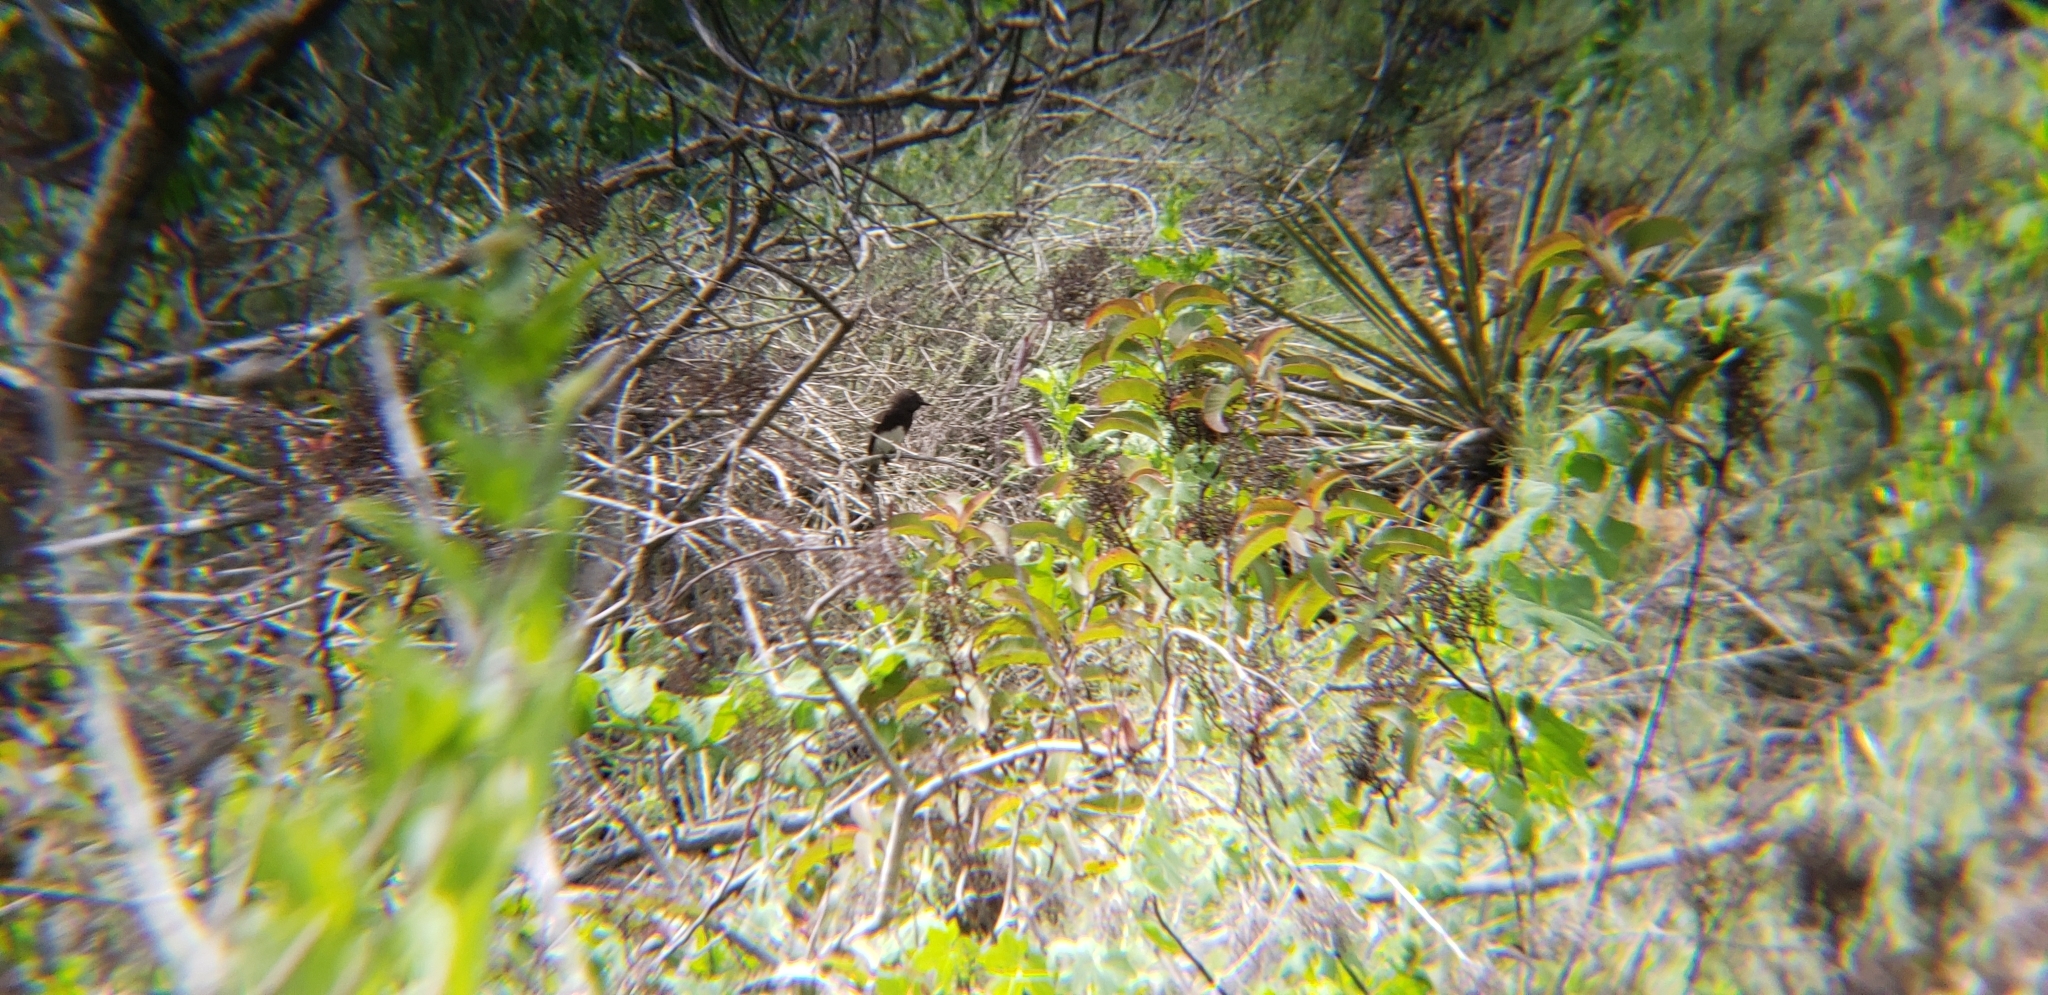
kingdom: Animalia
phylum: Chordata
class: Aves
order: Passeriformes
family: Tyrannidae
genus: Sayornis
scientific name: Sayornis nigricans
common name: Black phoebe
